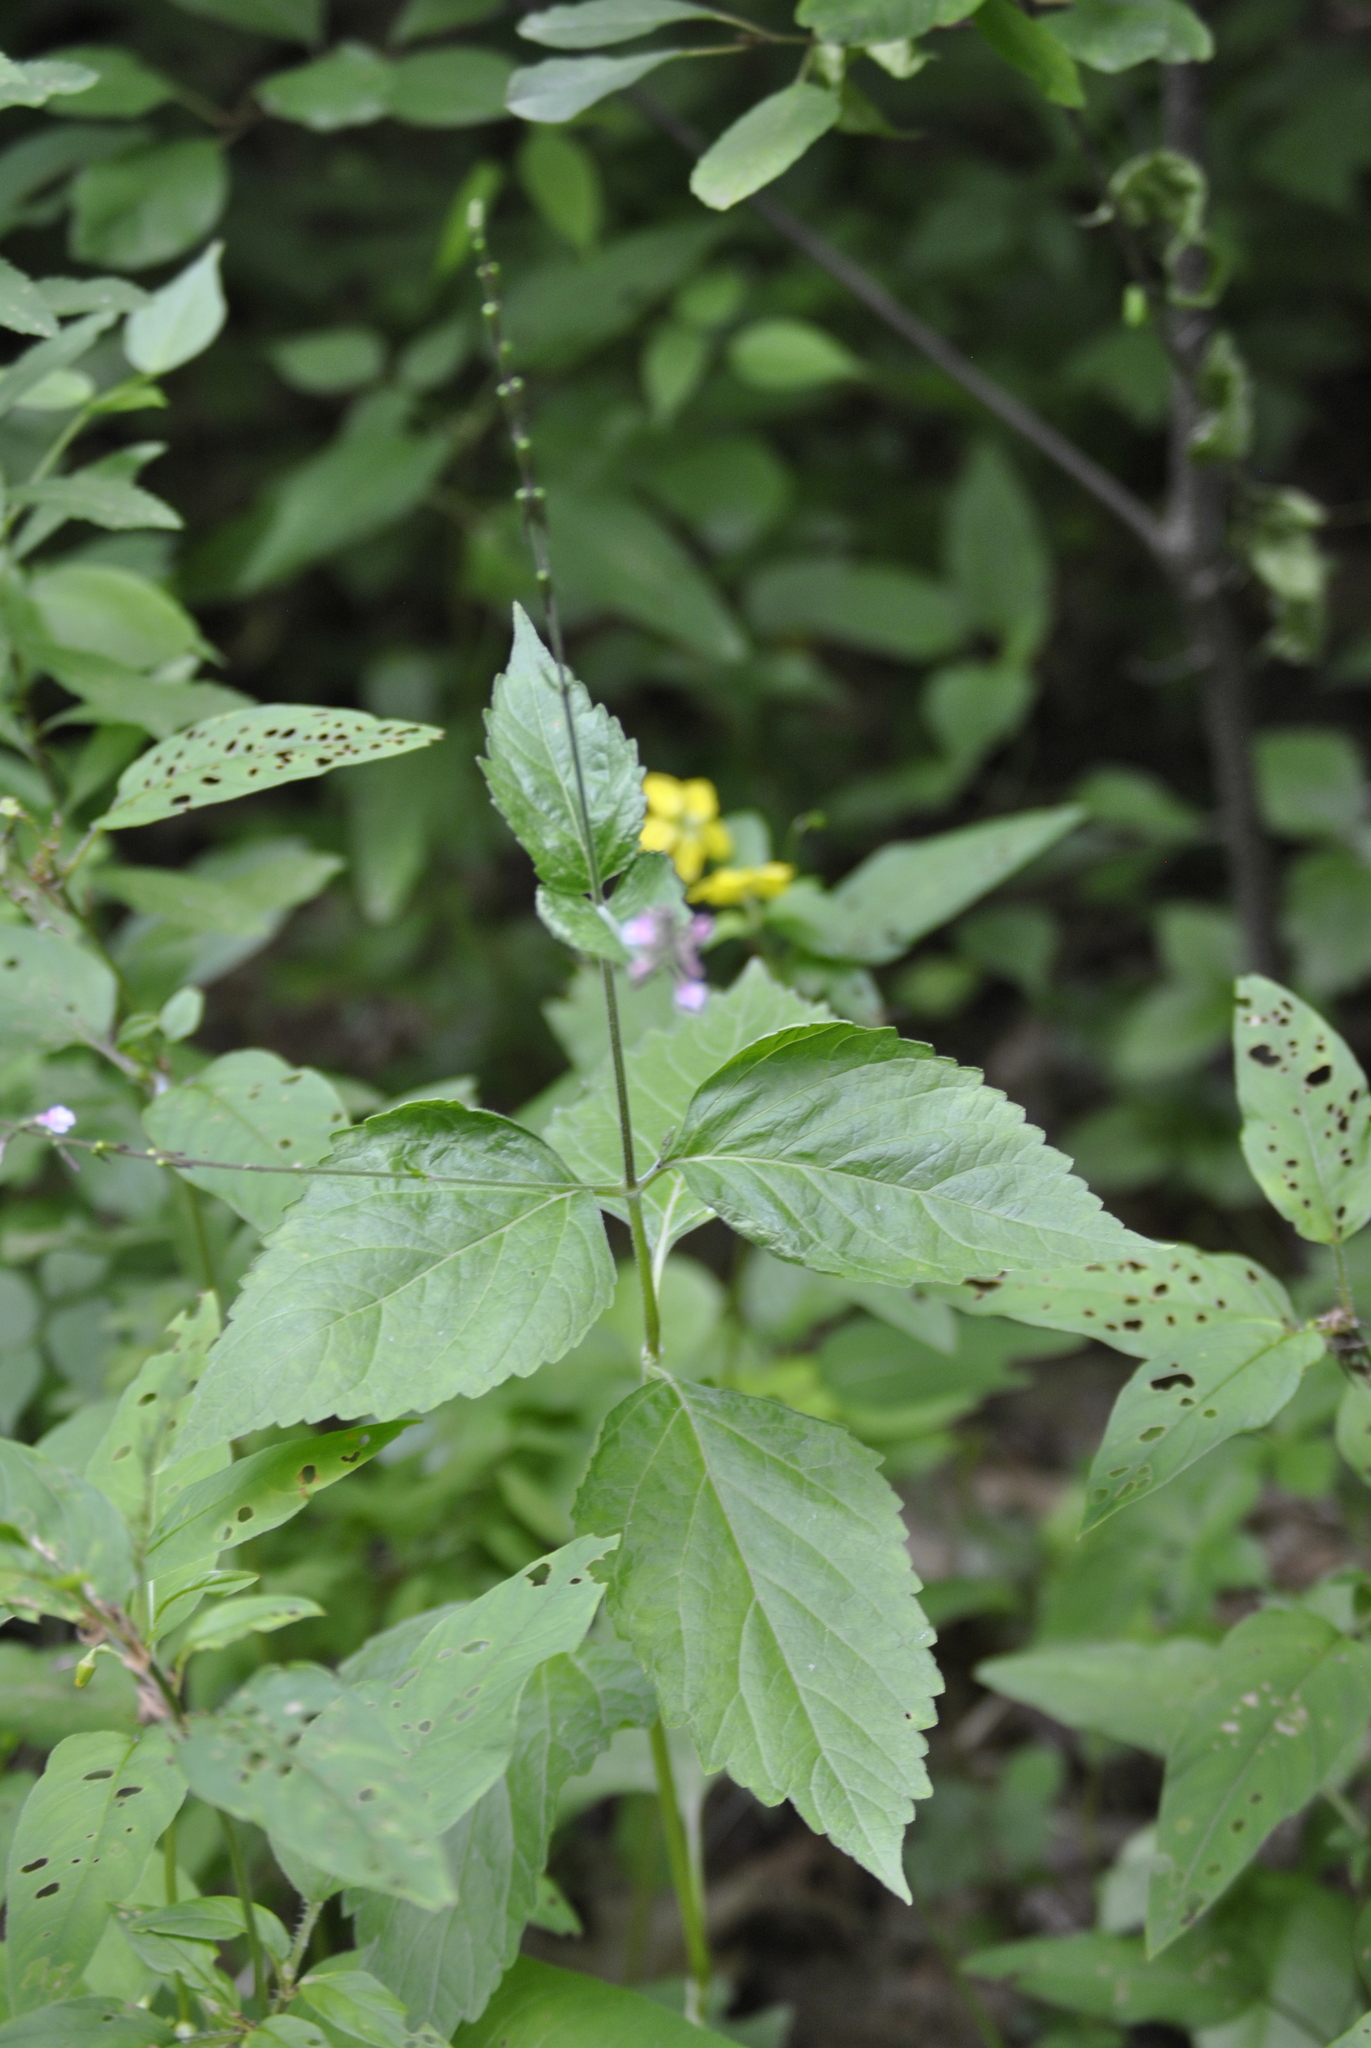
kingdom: Plantae
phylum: Tracheophyta
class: Magnoliopsida
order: Lamiales
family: Phrymaceae
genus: Phryma
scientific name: Phryma leptostachya
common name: American lopseed
